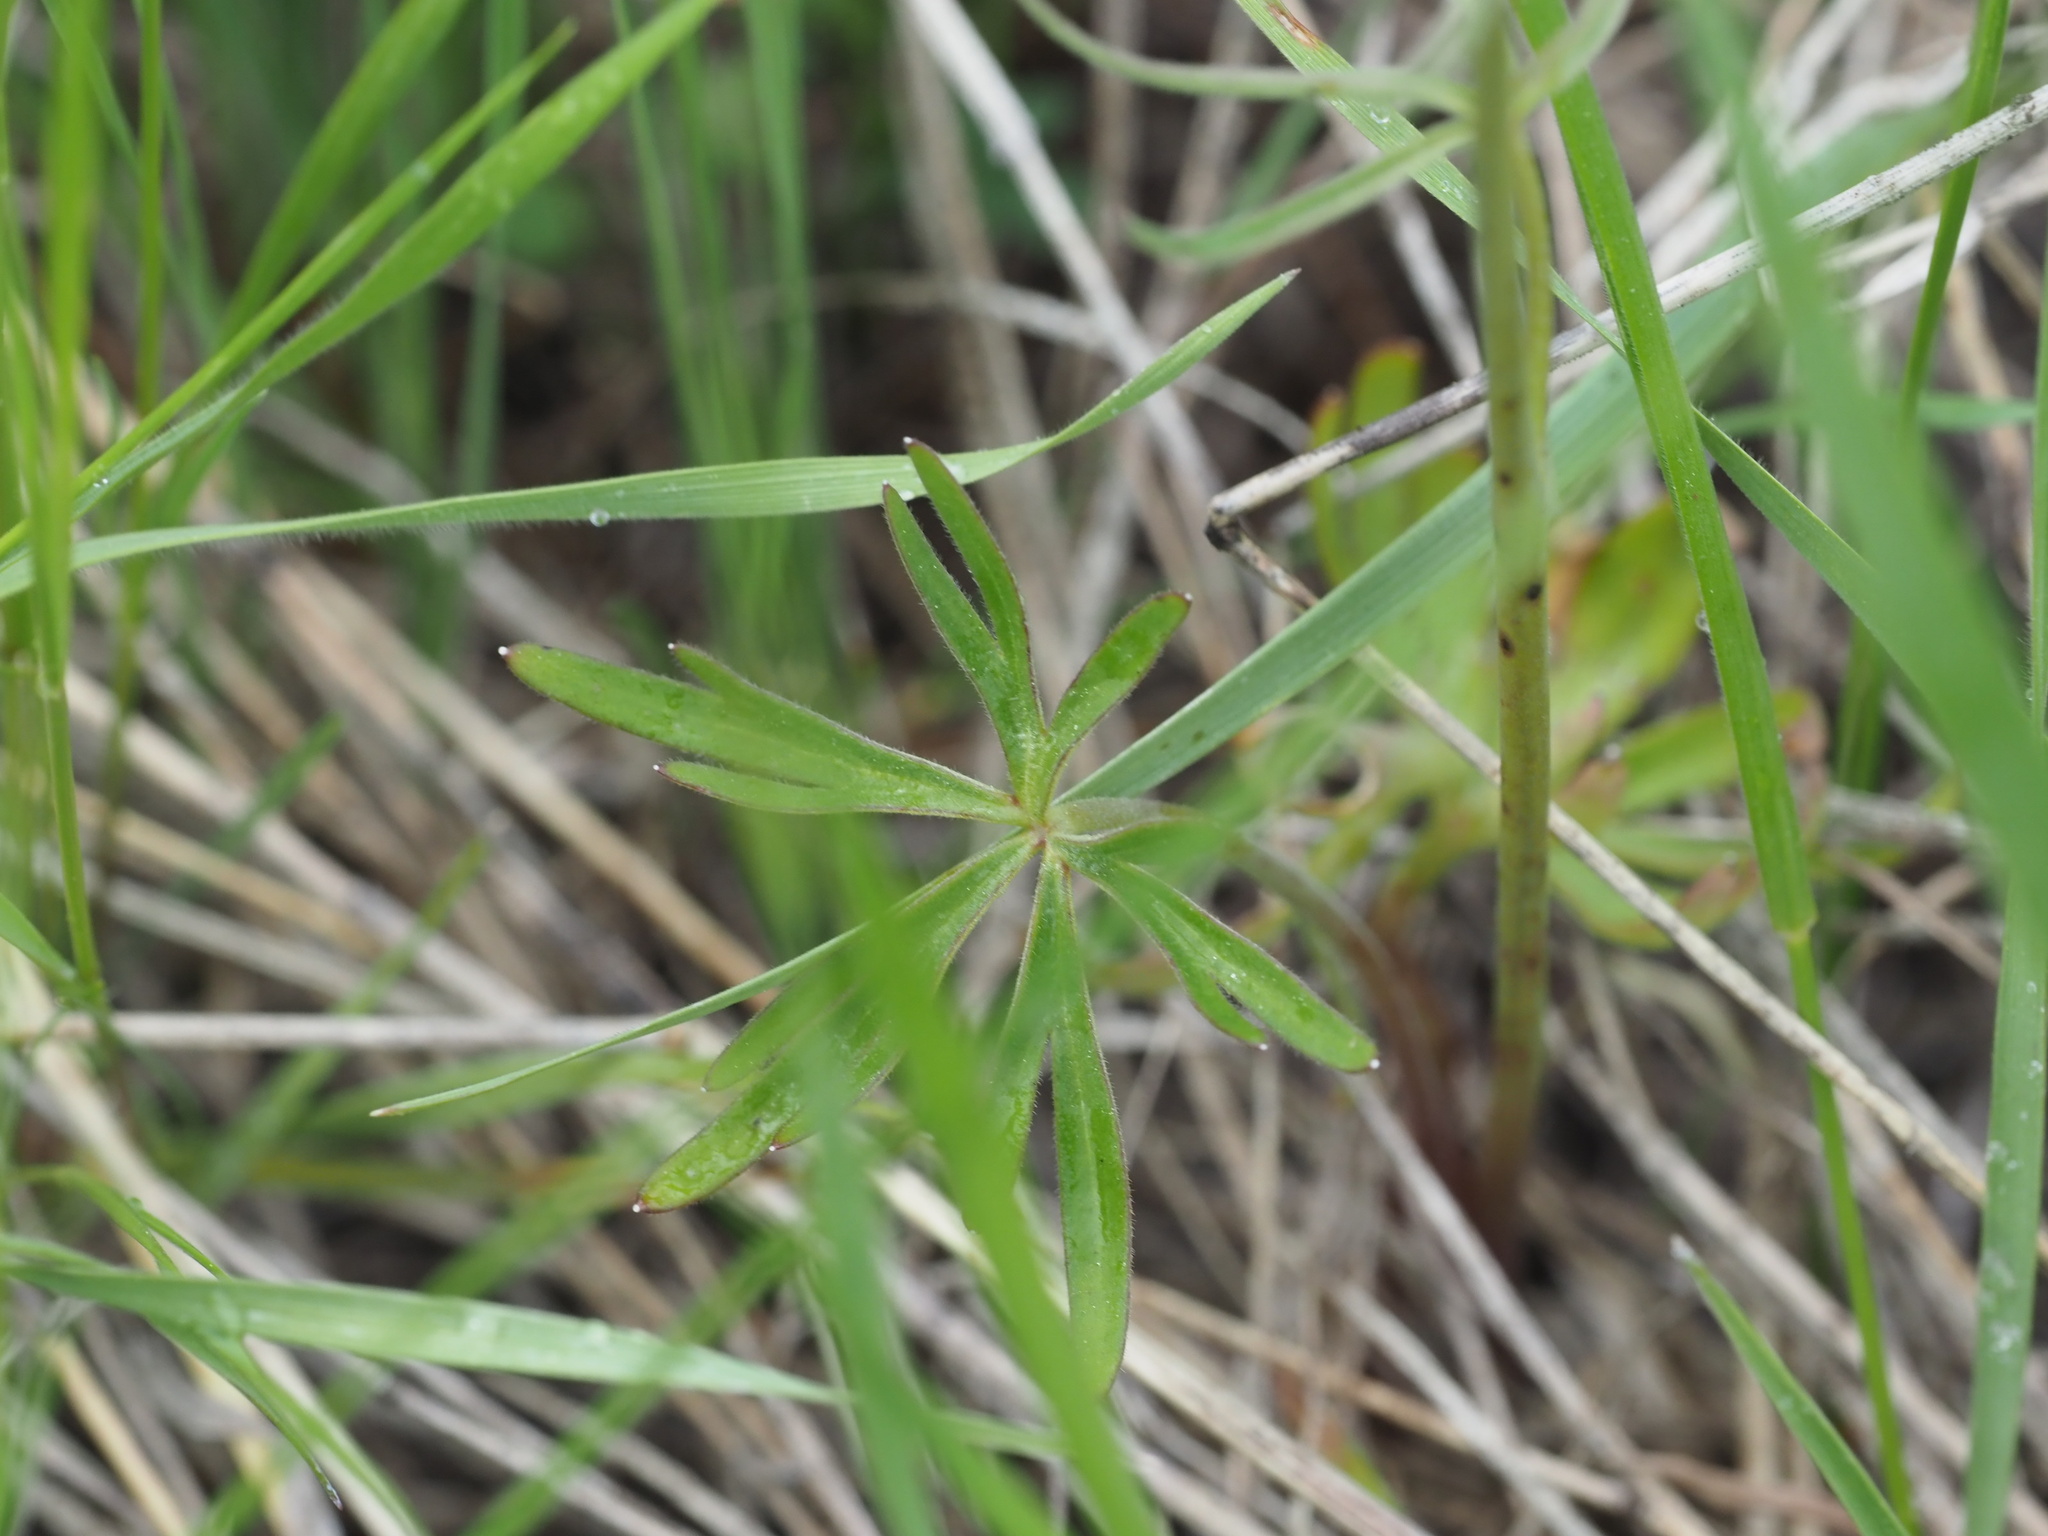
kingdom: Plantae
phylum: Tracheophyta
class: Magnoliopsida
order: Ranunculales
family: Ranunculaceae
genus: Delphinium
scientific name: Delphinium nuttallianum
